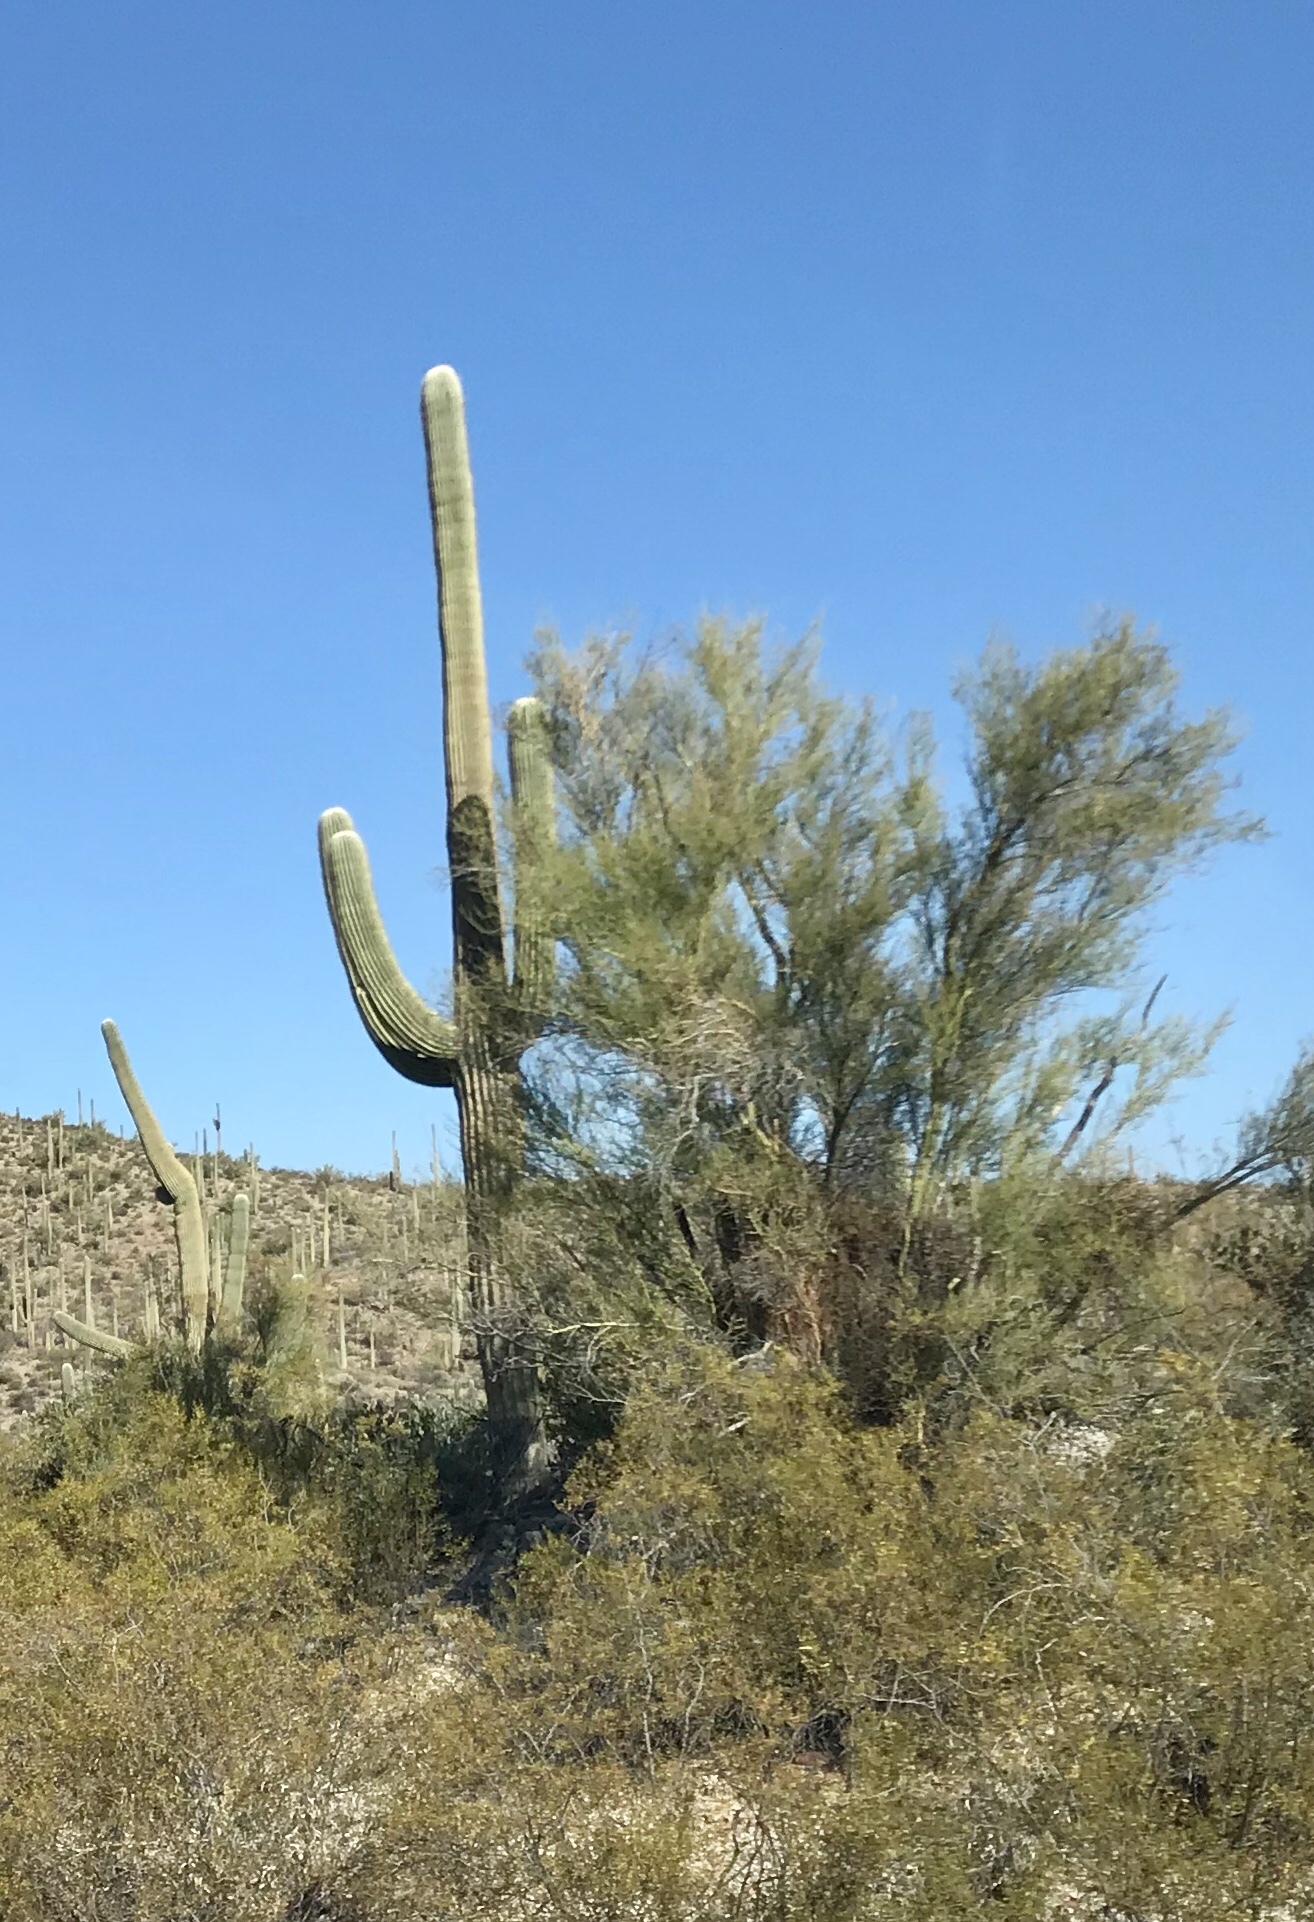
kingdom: Plantae
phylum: Tracheophyta
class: Magnoliopsida
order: Caryophyllales
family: Cactaceae
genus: Carnegiea
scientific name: Carnegiea gigantea
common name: Saguaro
